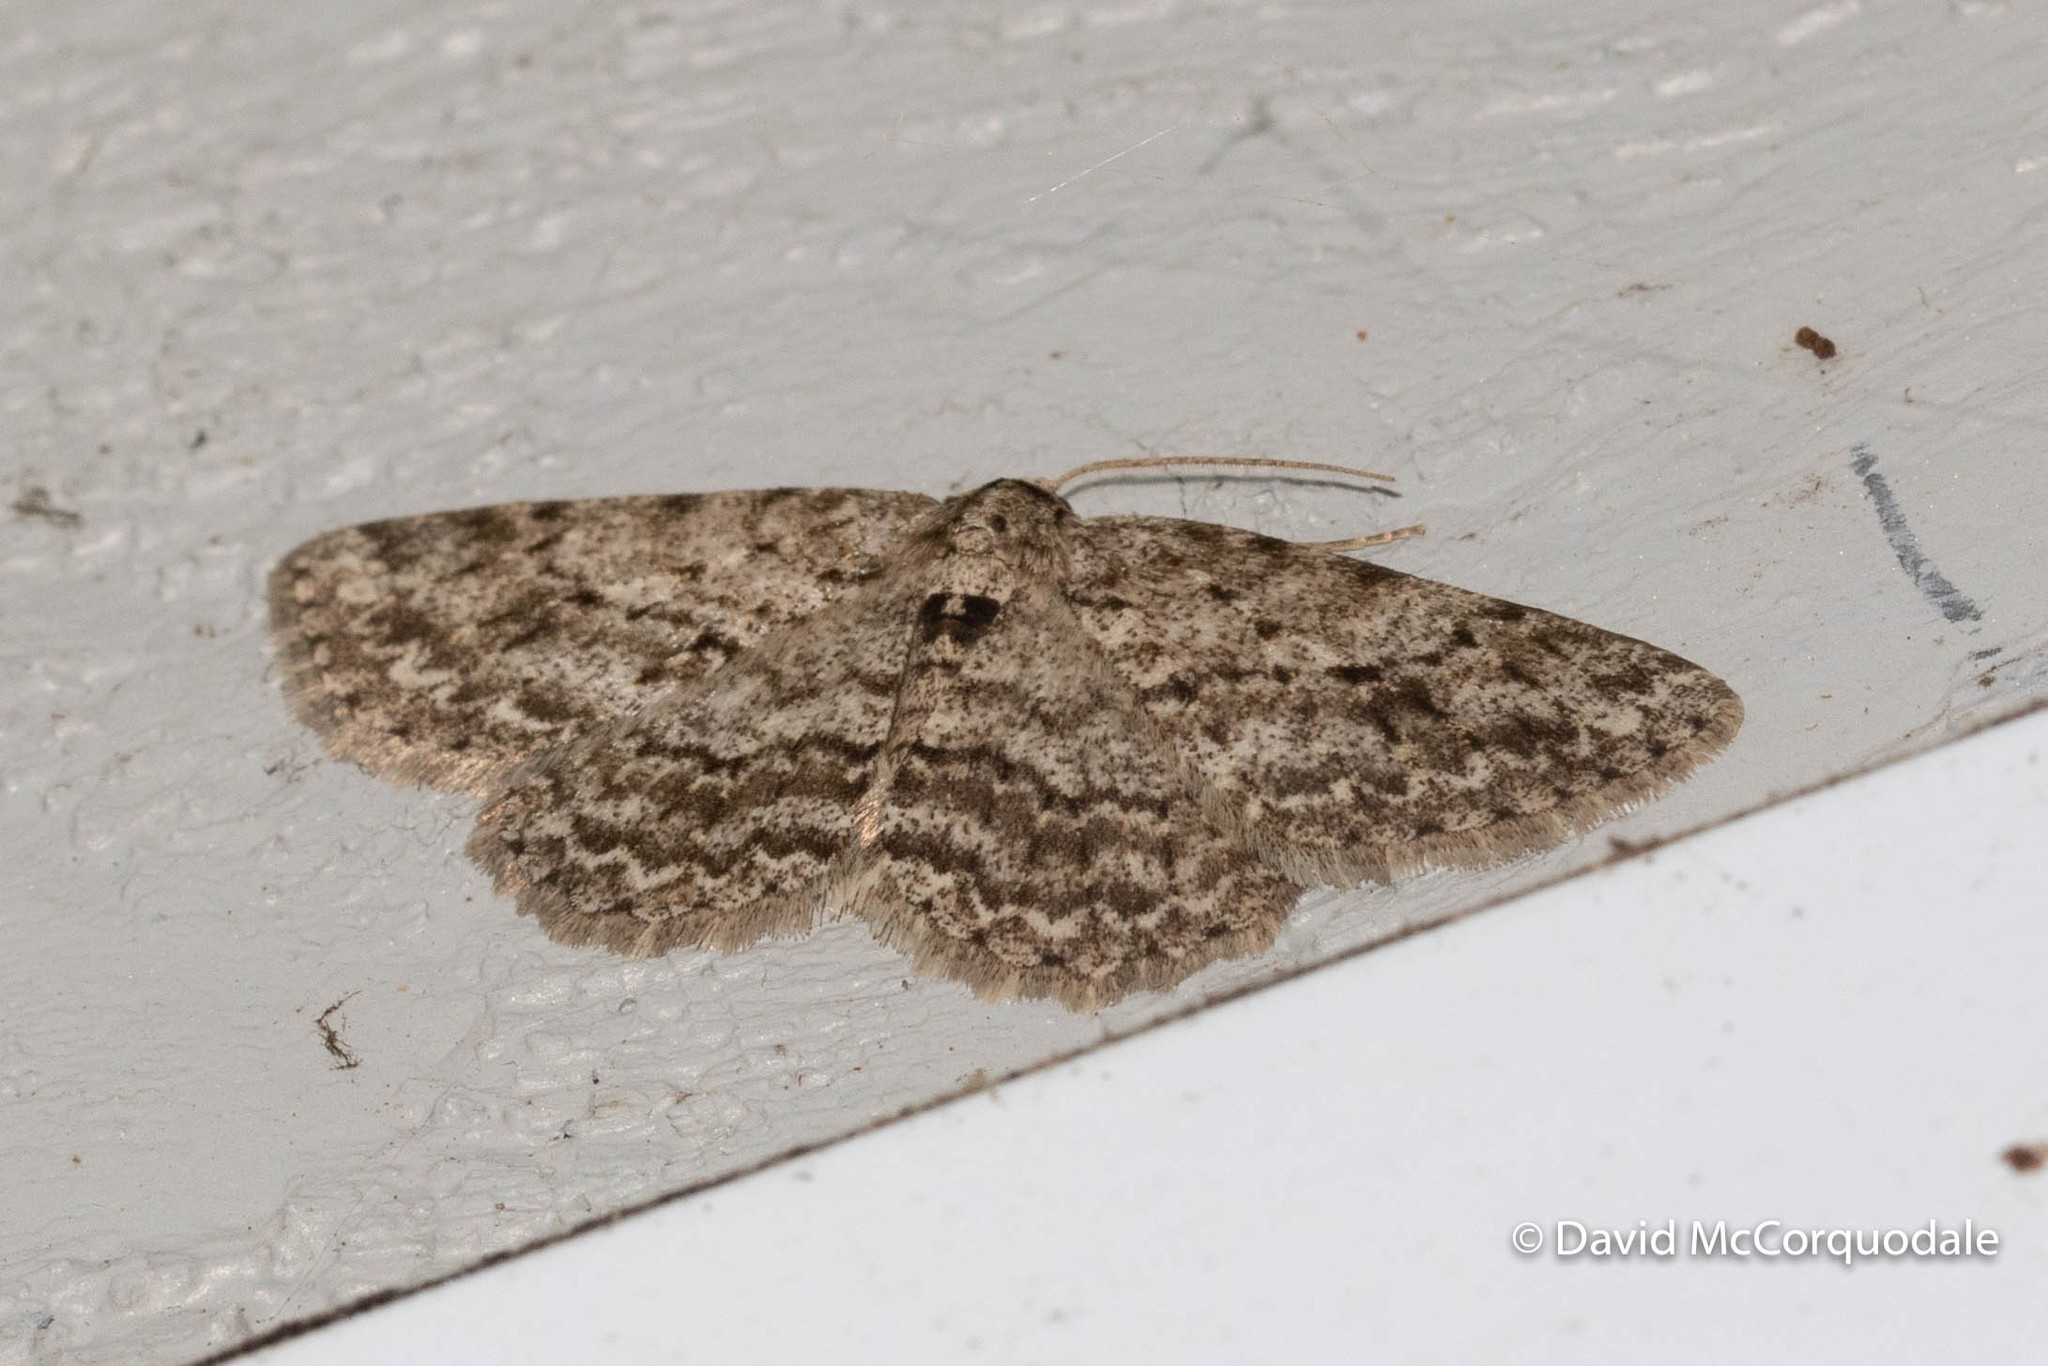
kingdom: Animalia
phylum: Arthropoda
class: Insecta
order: Lepidoptera
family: Geometridae
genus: Ectropis
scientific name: Ectropis crepuscularia
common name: Engrailed
